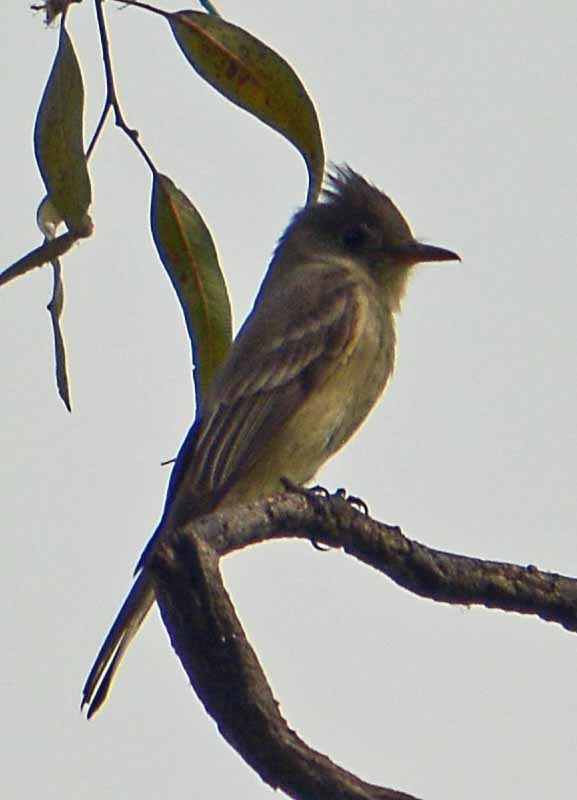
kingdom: Animalia
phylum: Chordata
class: Aves
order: Passeriformes
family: Tyrannidae
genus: Contopus
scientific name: Contopus pertinax
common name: Greater pewee
